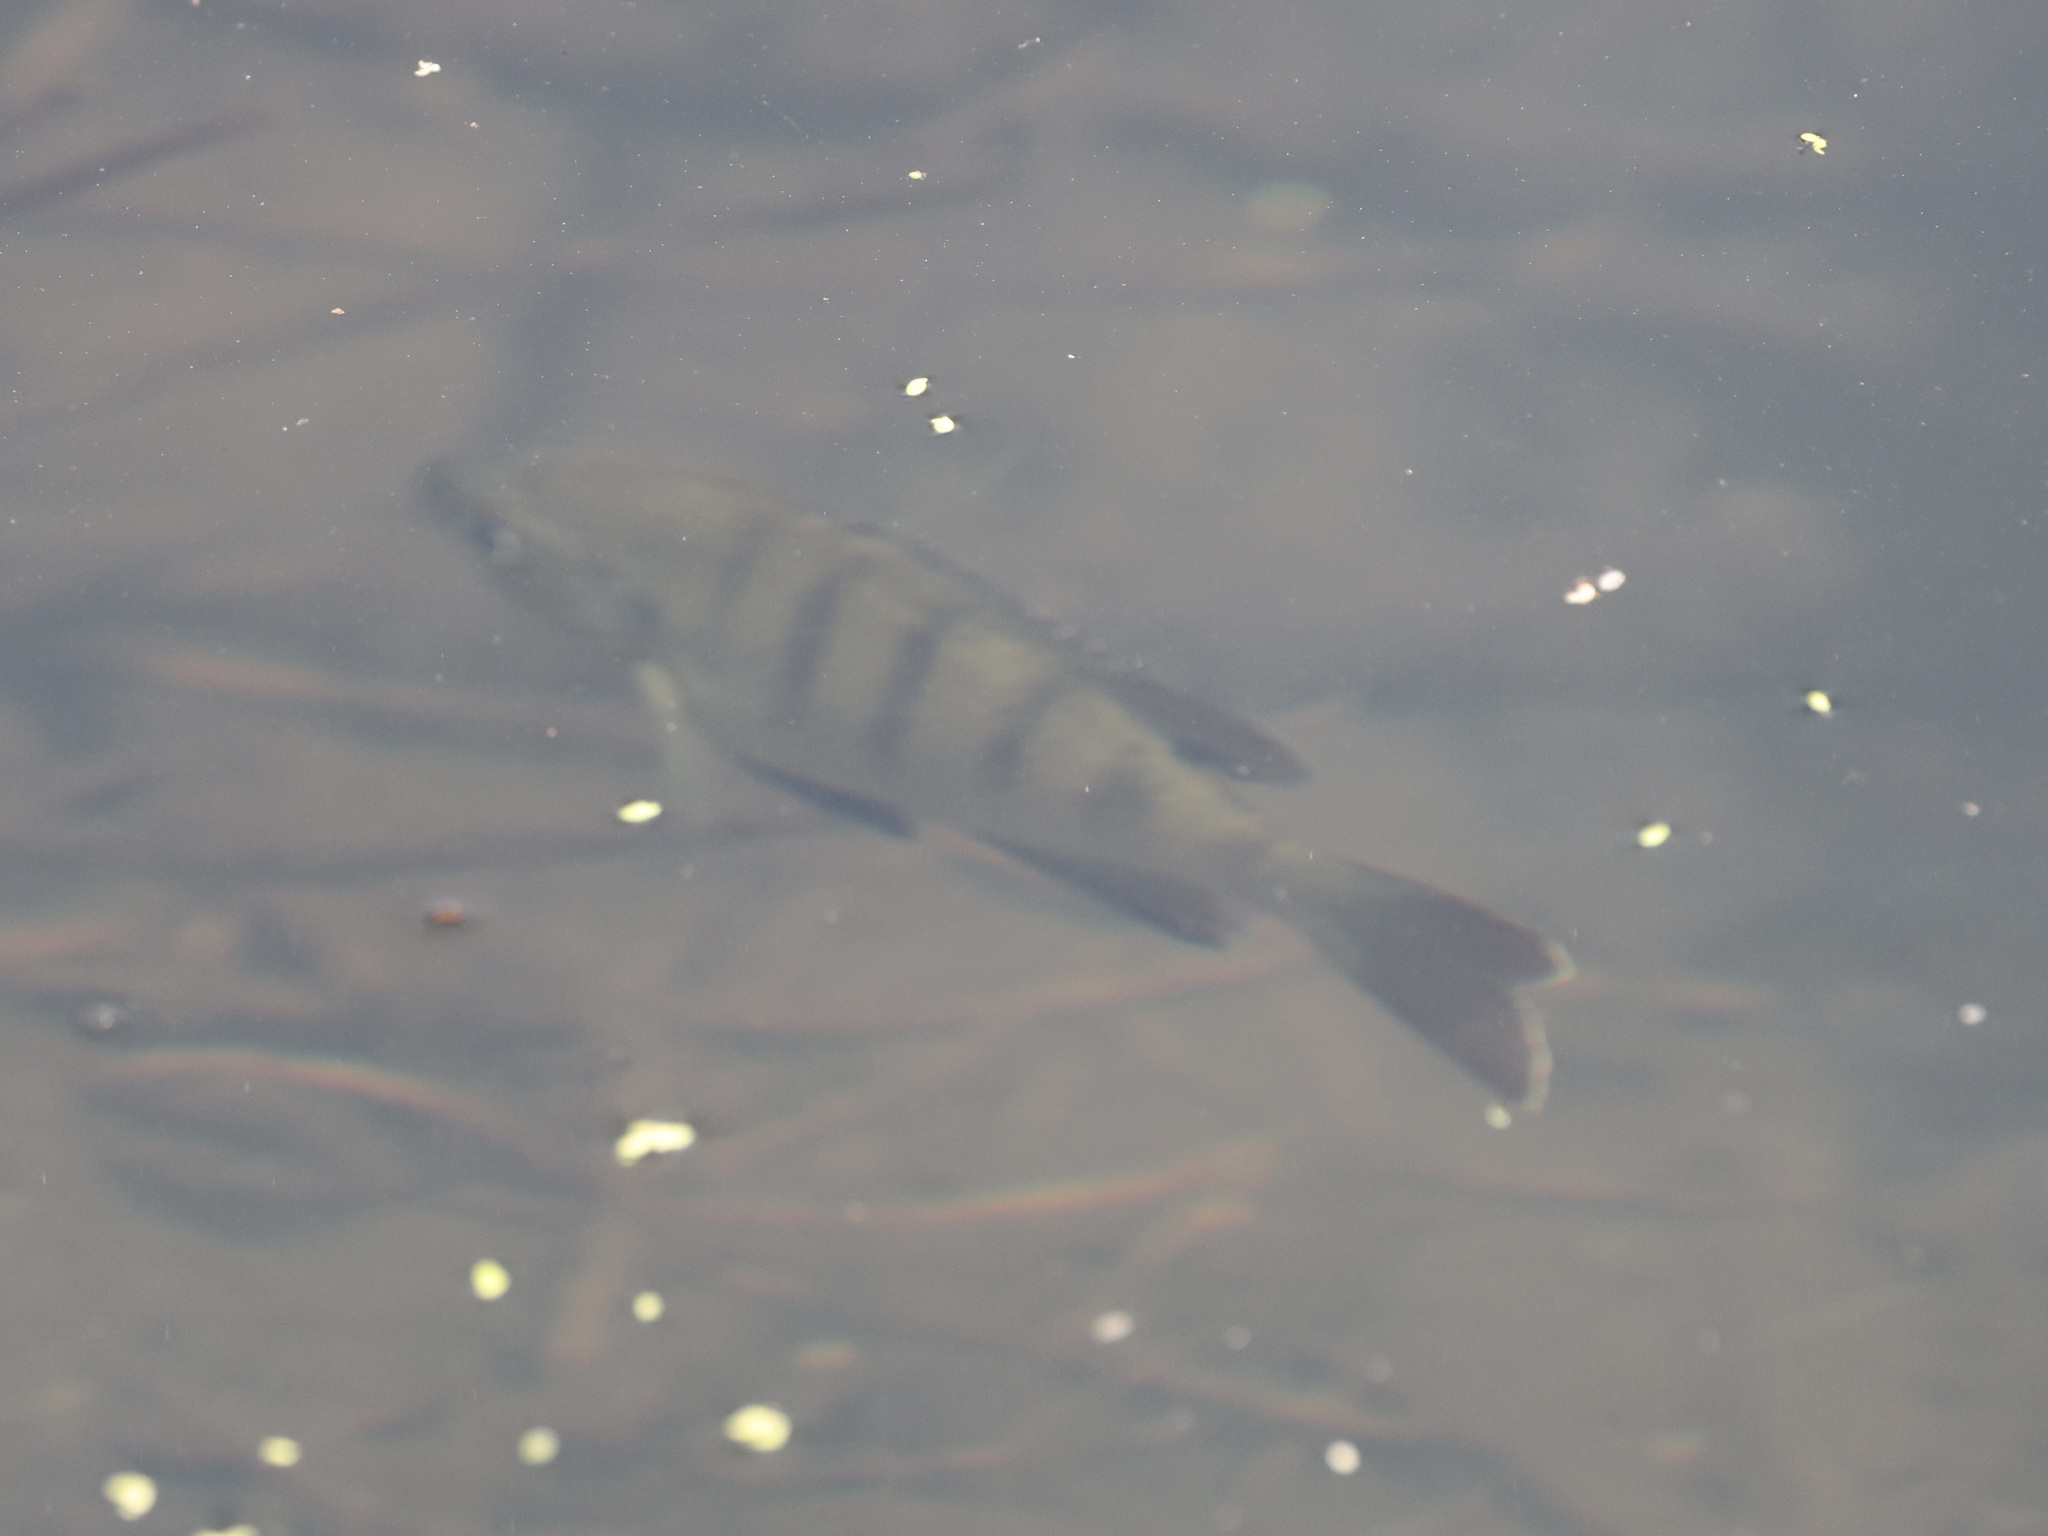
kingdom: Animalia
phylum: Chordata
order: Perciformes
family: Centrarchidae
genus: Lepomis
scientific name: Lepomis macrochirus
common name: Bluegill
